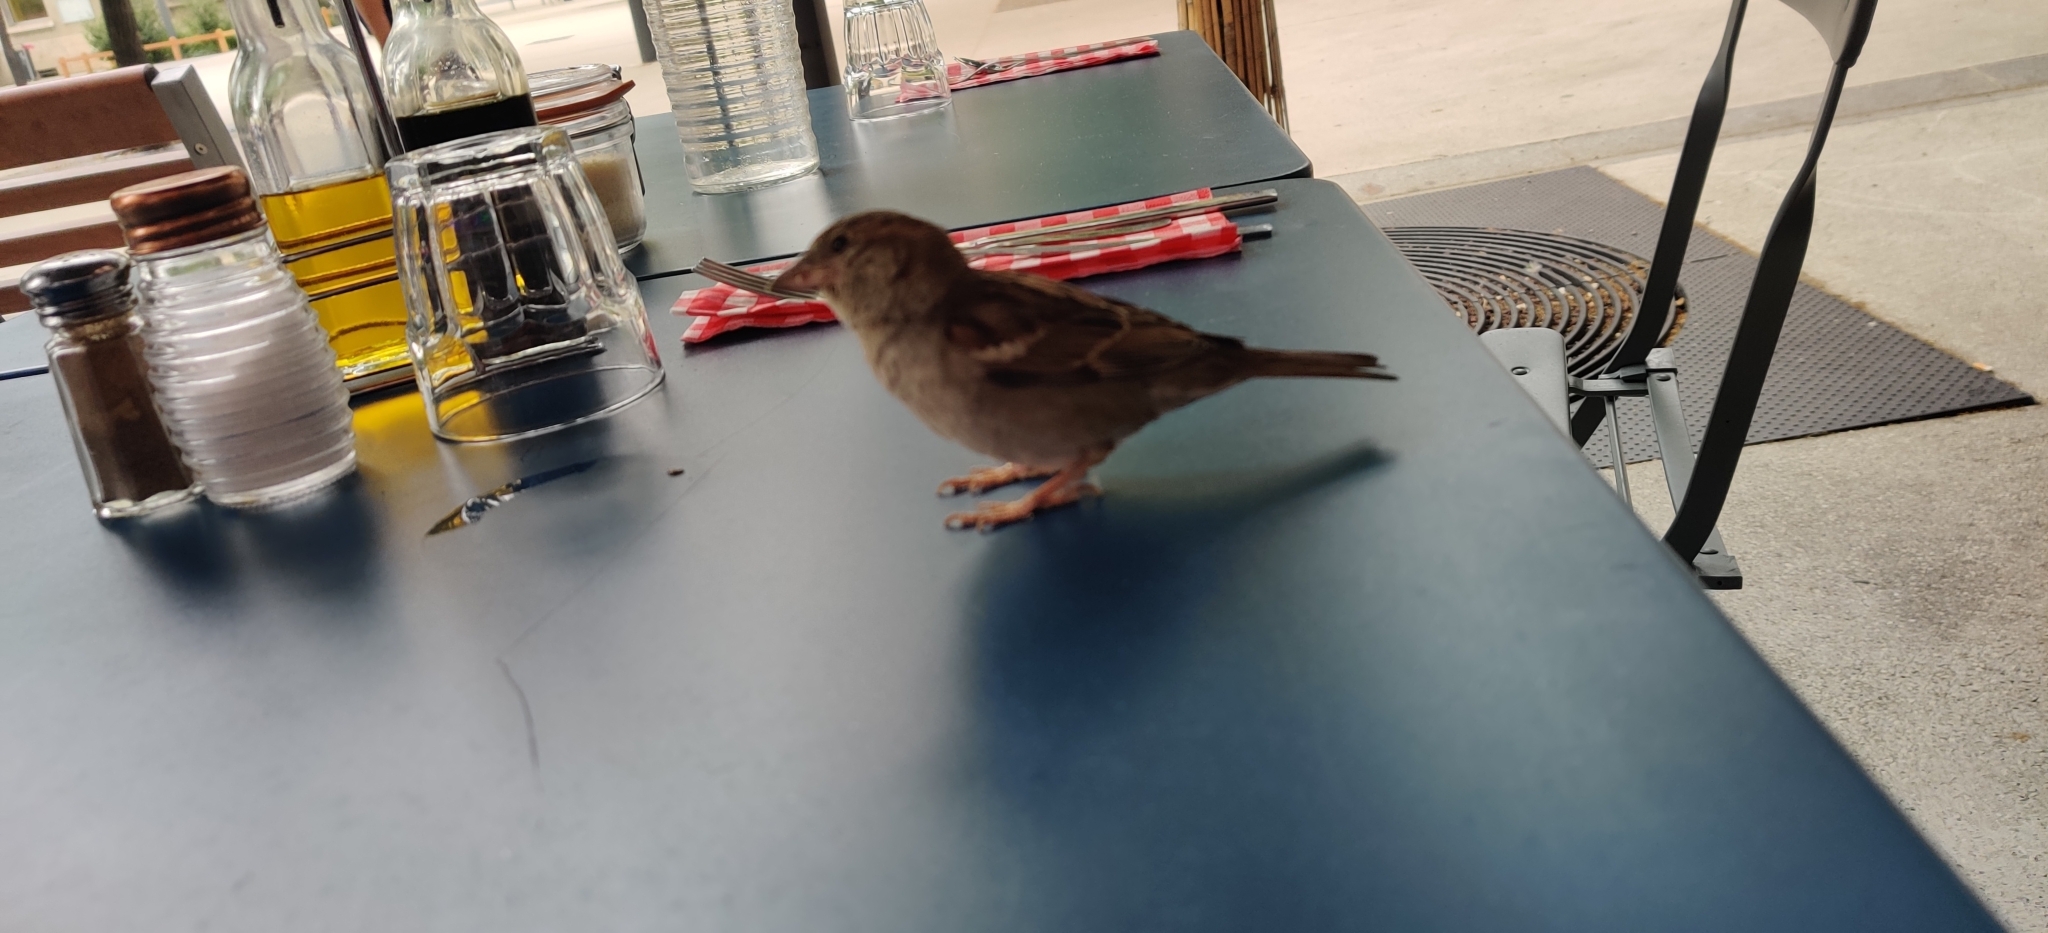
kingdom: Animalia
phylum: Chordata
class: Aves
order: Passeriformes
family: Passeridae
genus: Passer
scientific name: Passer domesticus
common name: House sparrow
